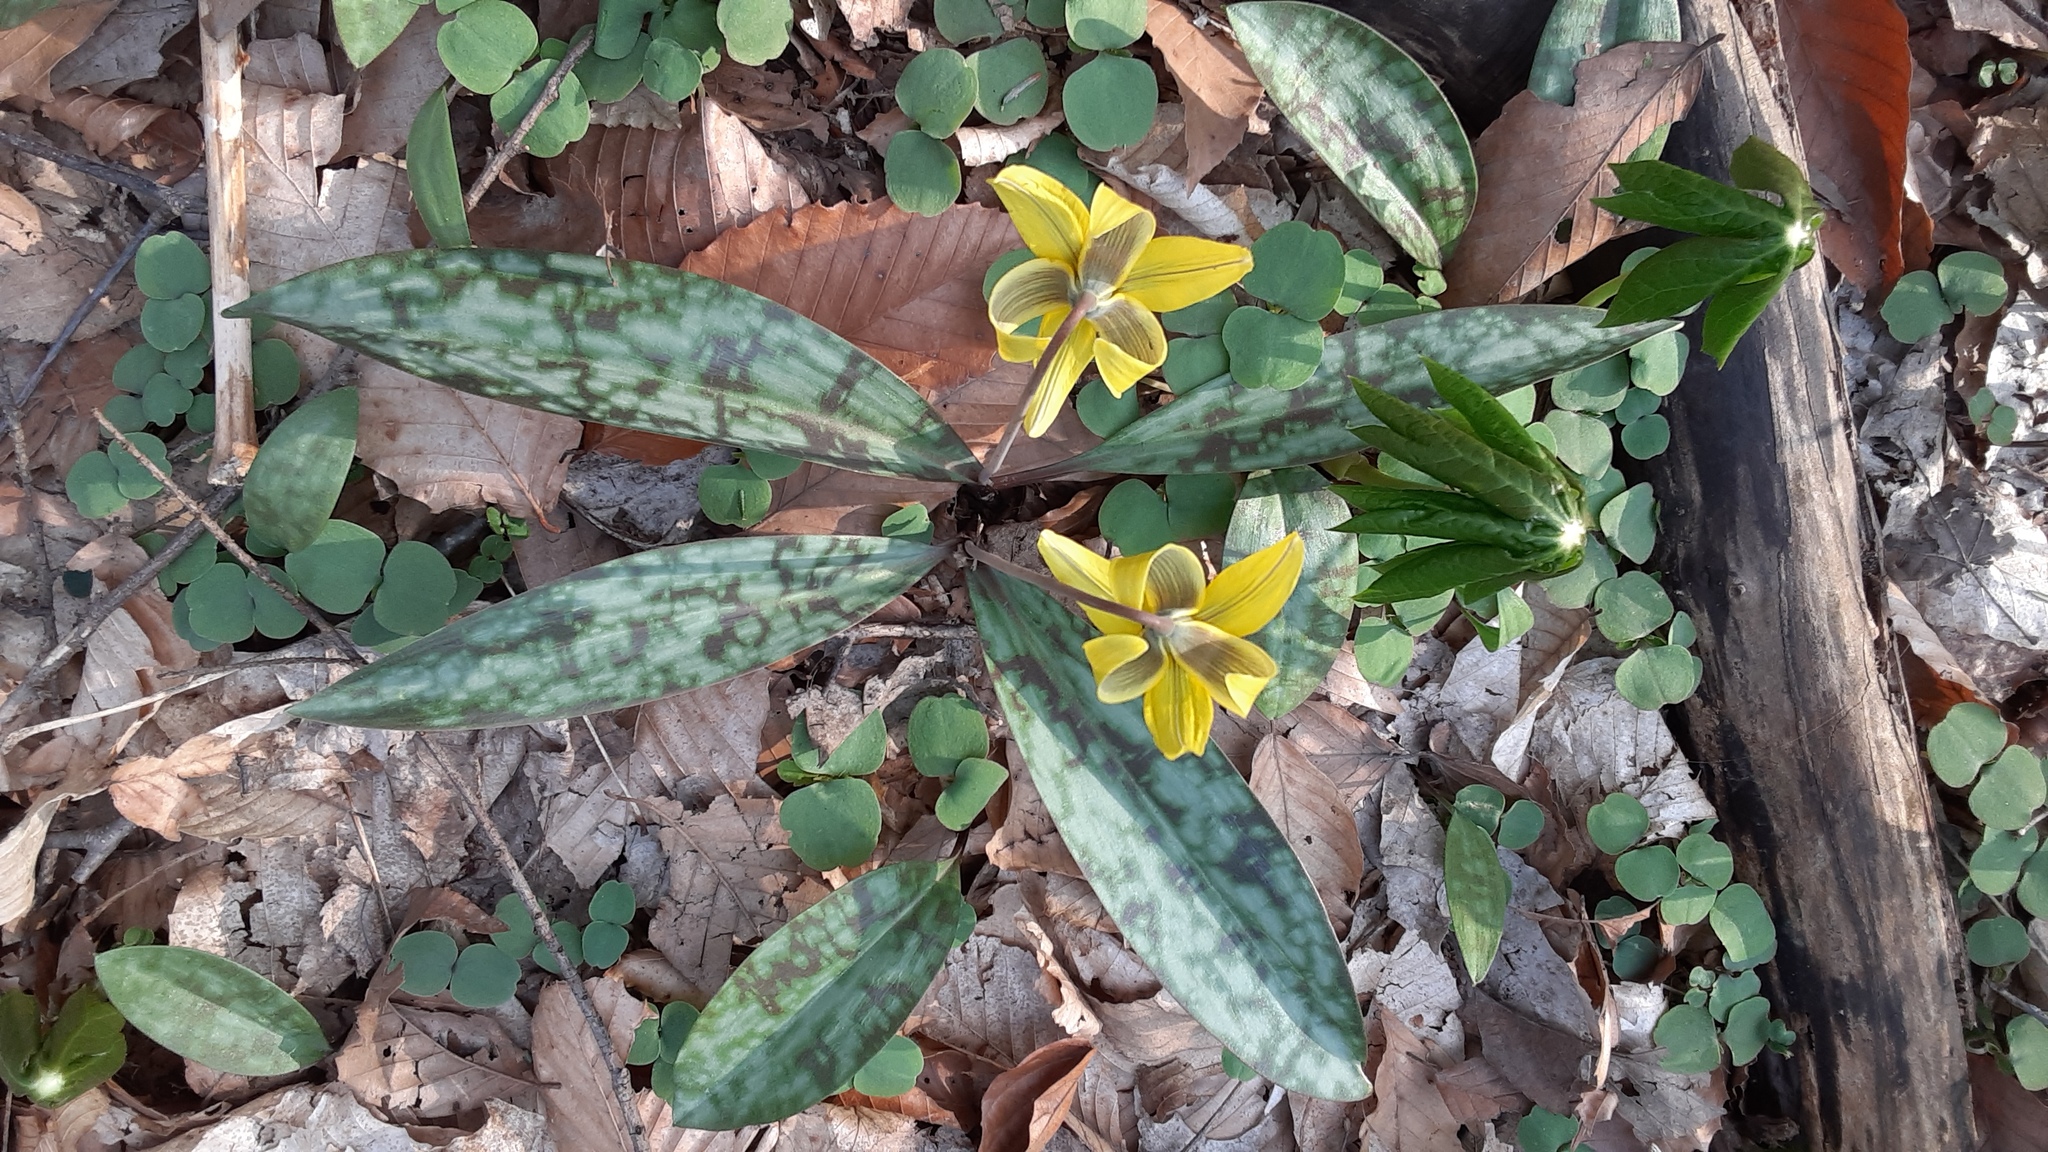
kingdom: Plantae
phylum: Tracheophyta
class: Liliopsida
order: Liliales
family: Liliaceae
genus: Erythronium
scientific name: Erythronium americanum
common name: Yellow adder's-tongue
